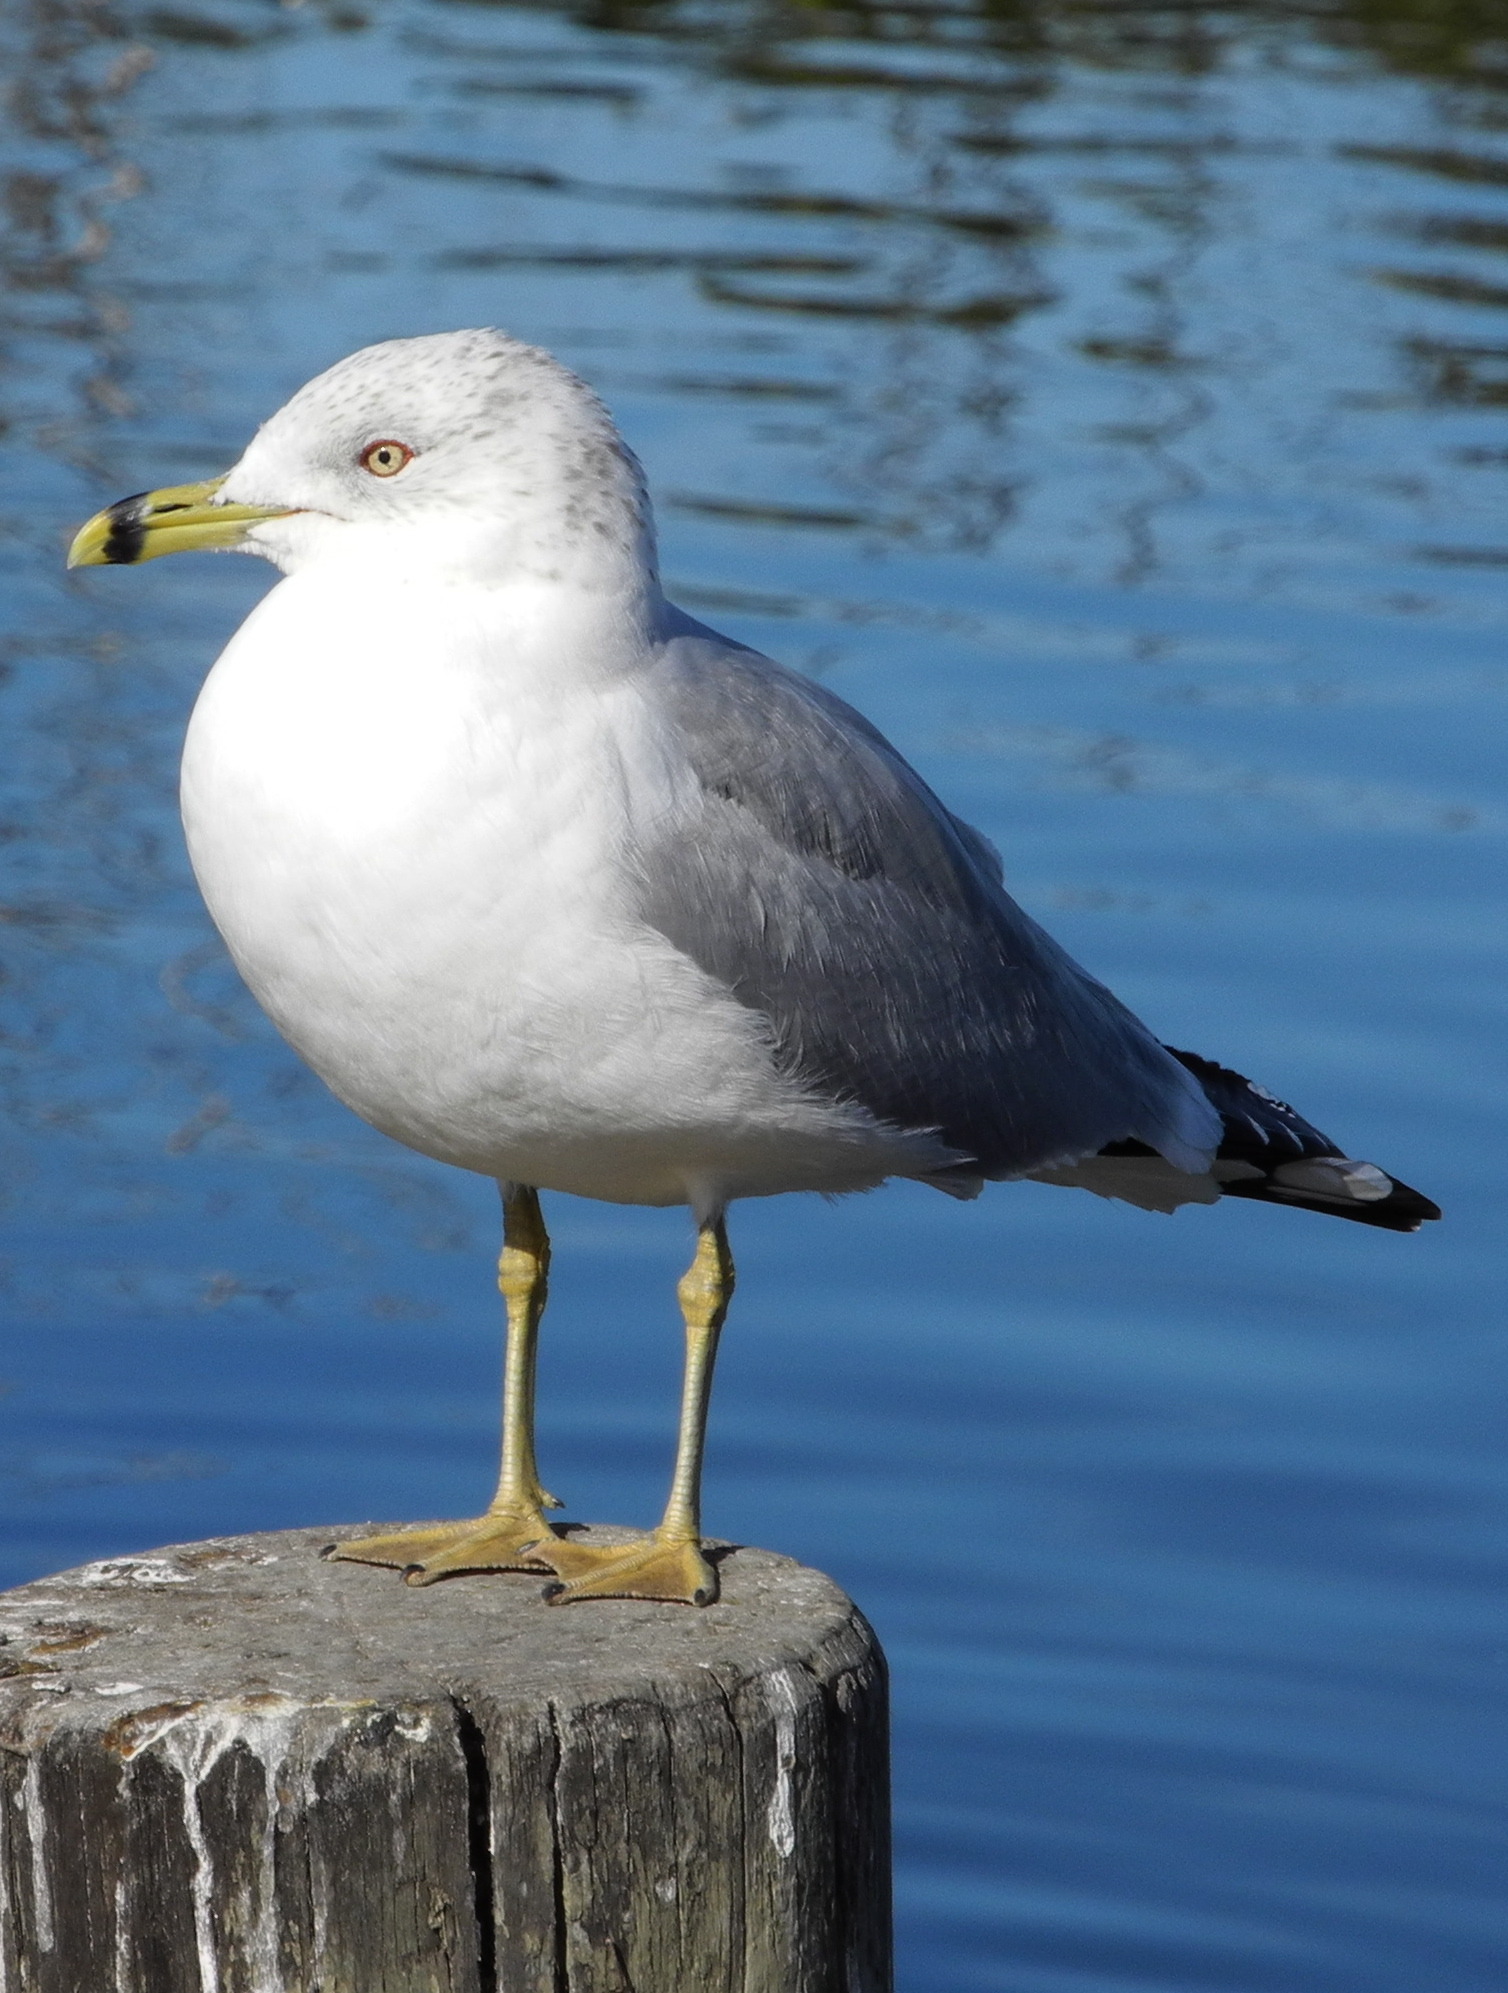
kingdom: Animalia
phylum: Chordata
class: Aves
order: Charadriiformes
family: Laridae
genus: Larus
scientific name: Larus delawarensis
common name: Ring-billed gull
